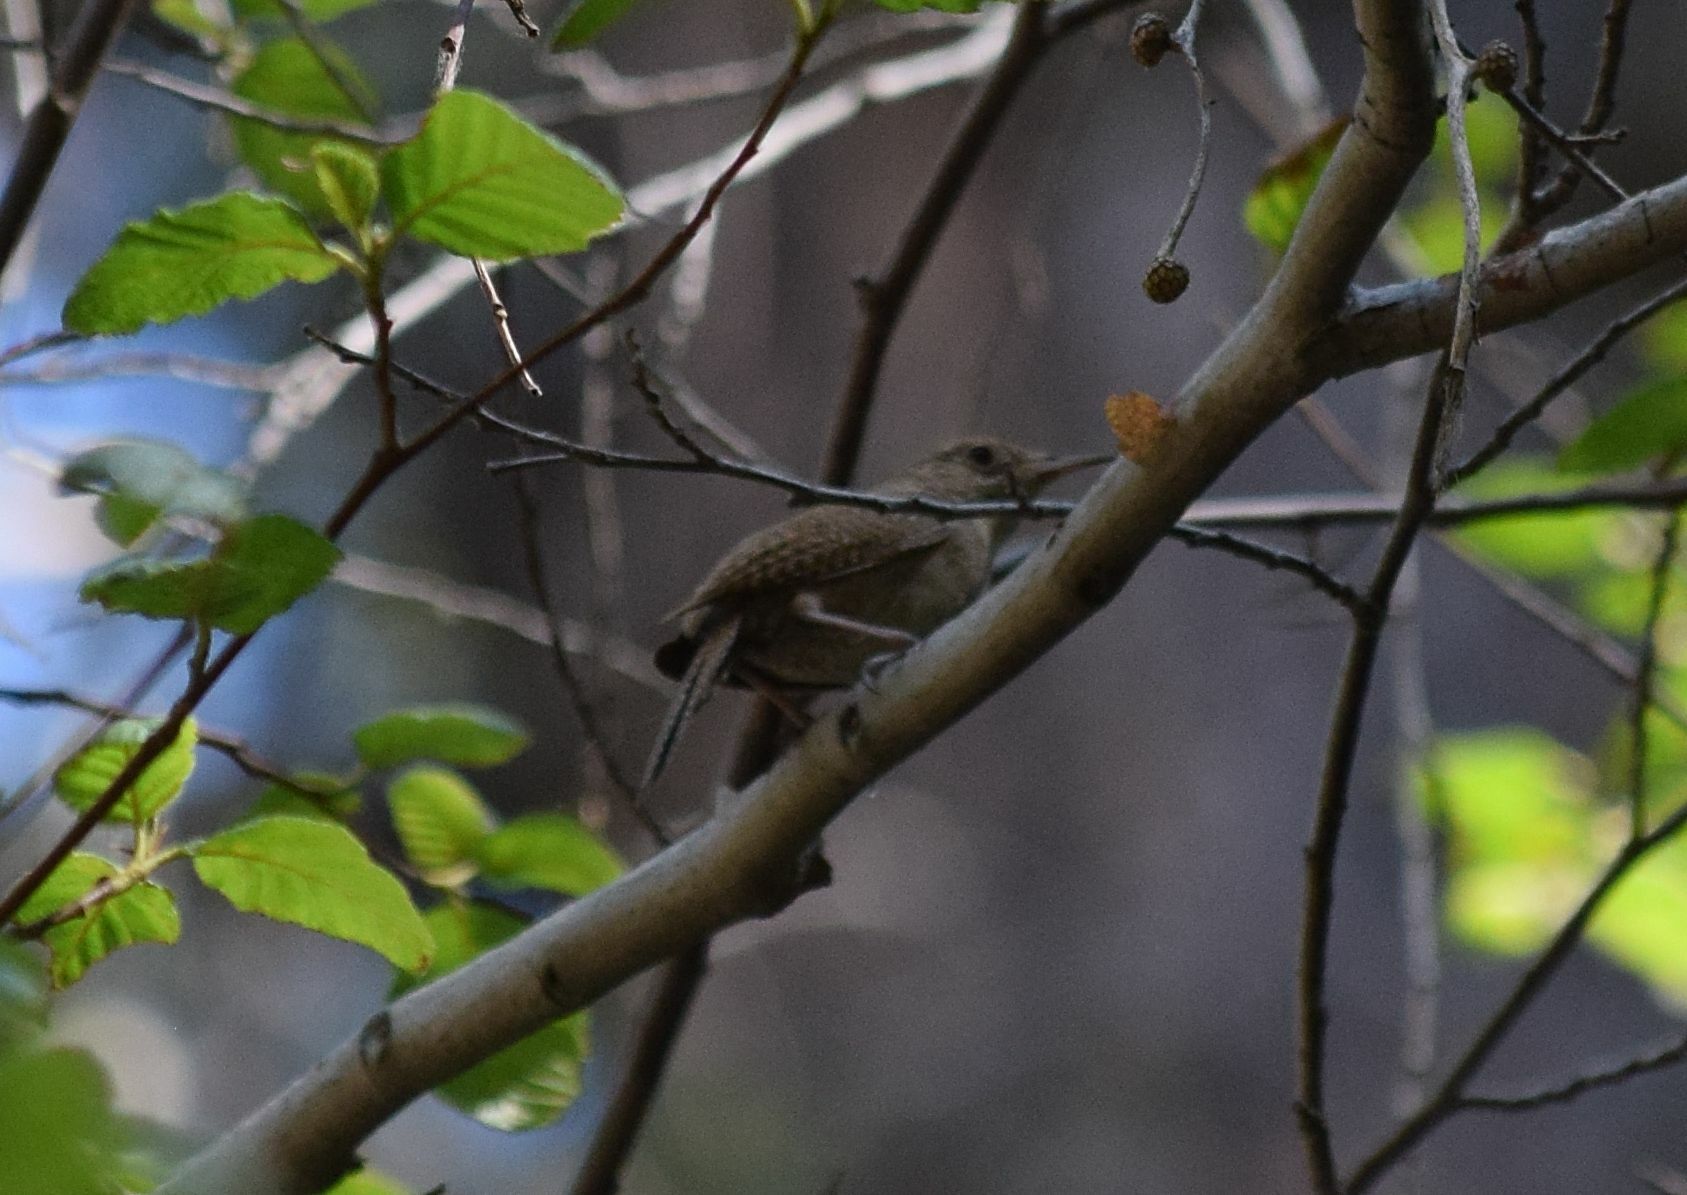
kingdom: Animalia
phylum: Chordata
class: Aves
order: Passeriformes
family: Troglodytidae
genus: Troglodytes
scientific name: Troglodytes aedon
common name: House wren
